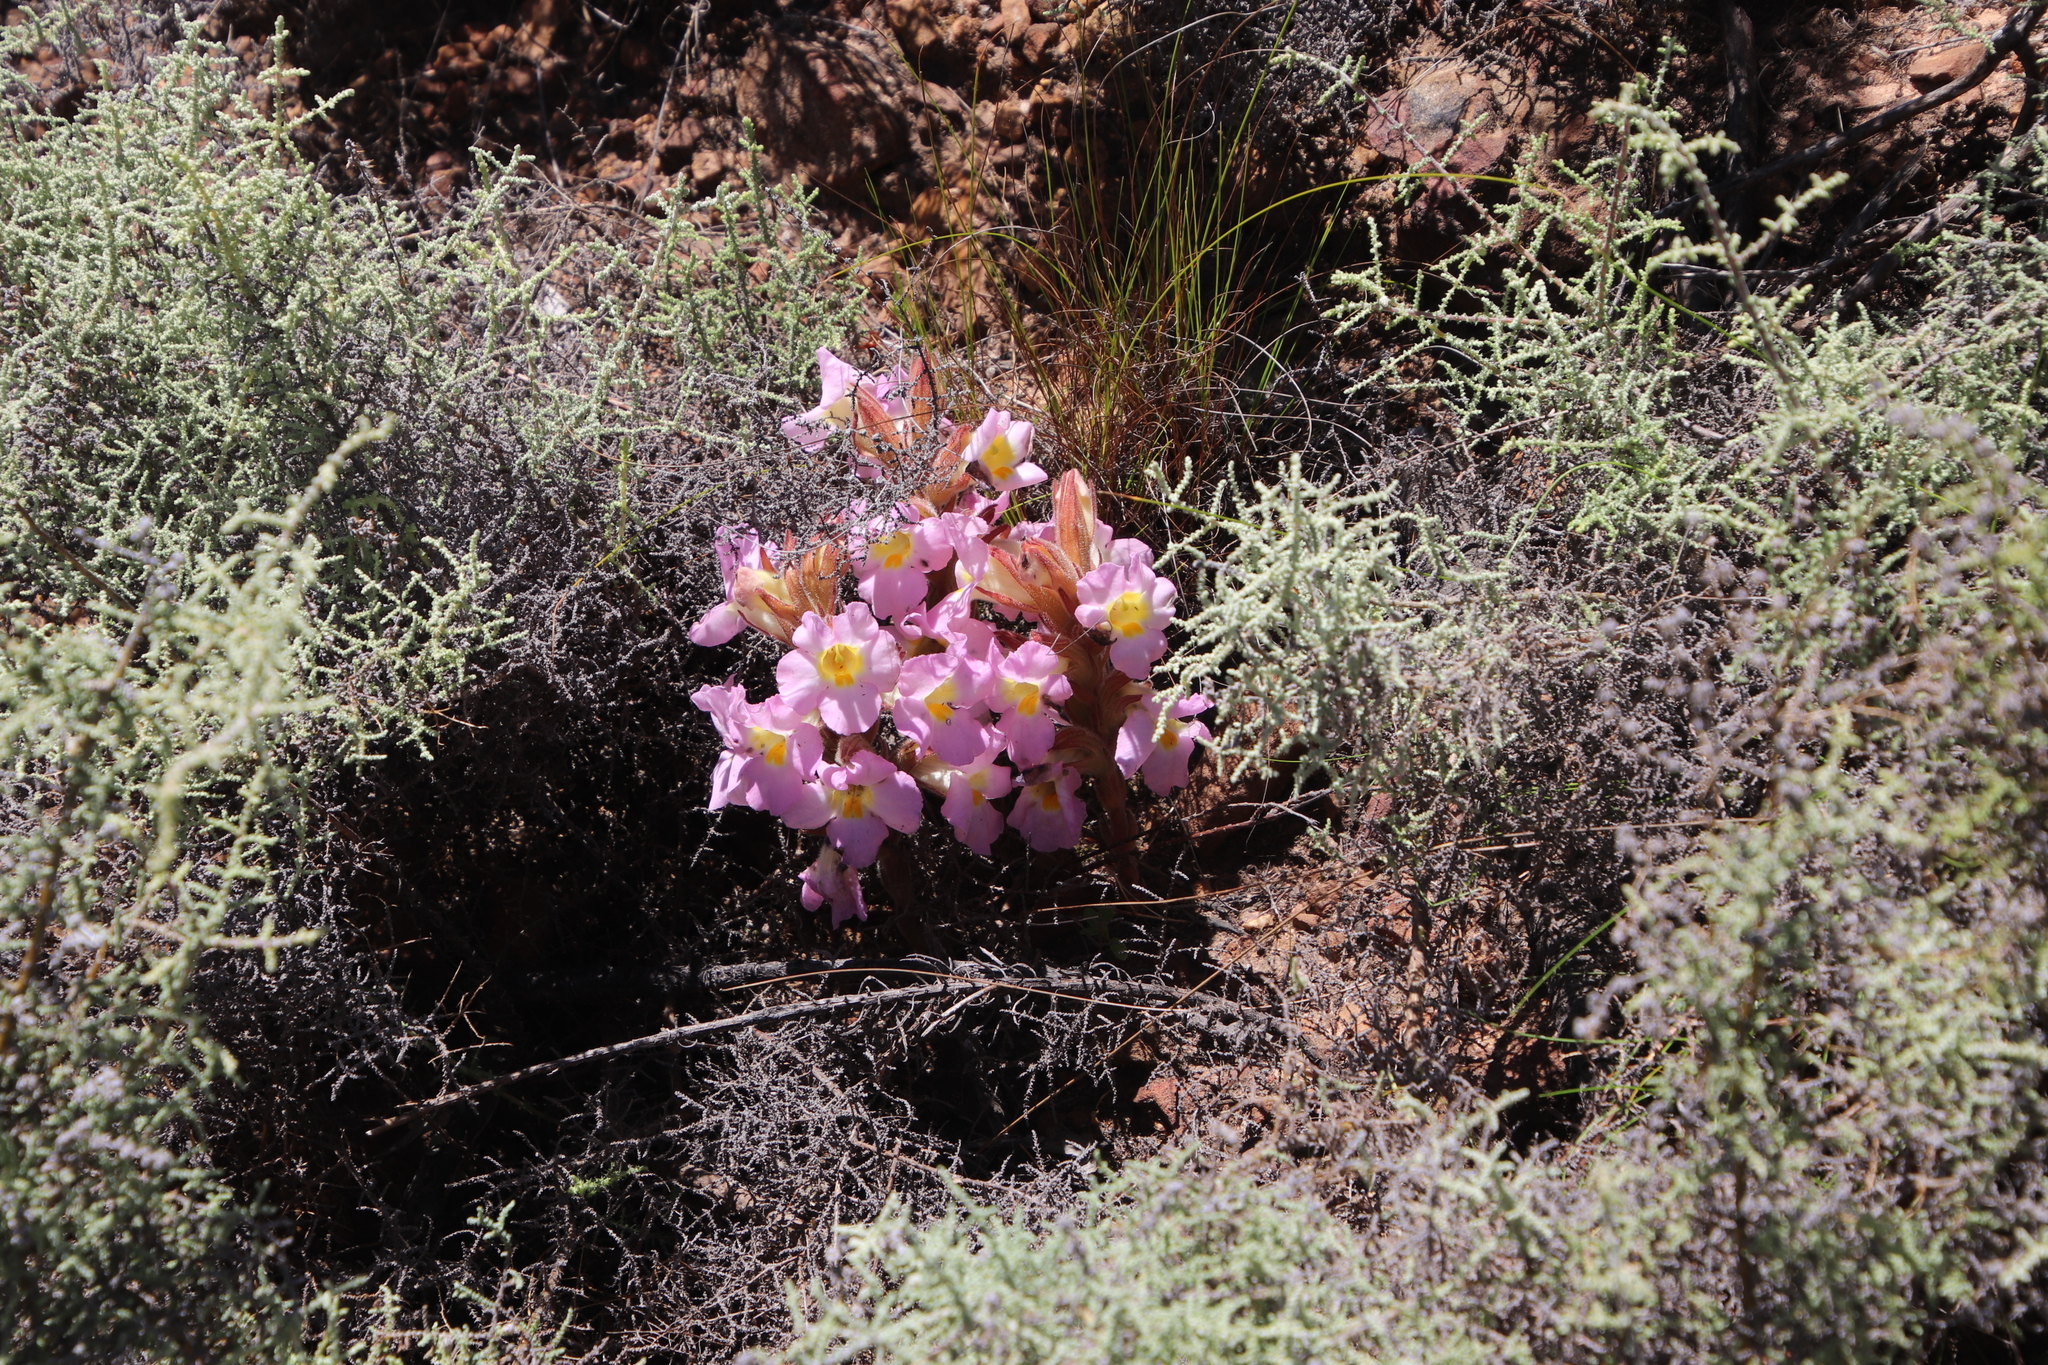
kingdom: Plantae
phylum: Tracheophyta
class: Magnoliopsida
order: Lamiales
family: Orobanchaceae
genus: Harveya
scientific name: Harveya purpurea
